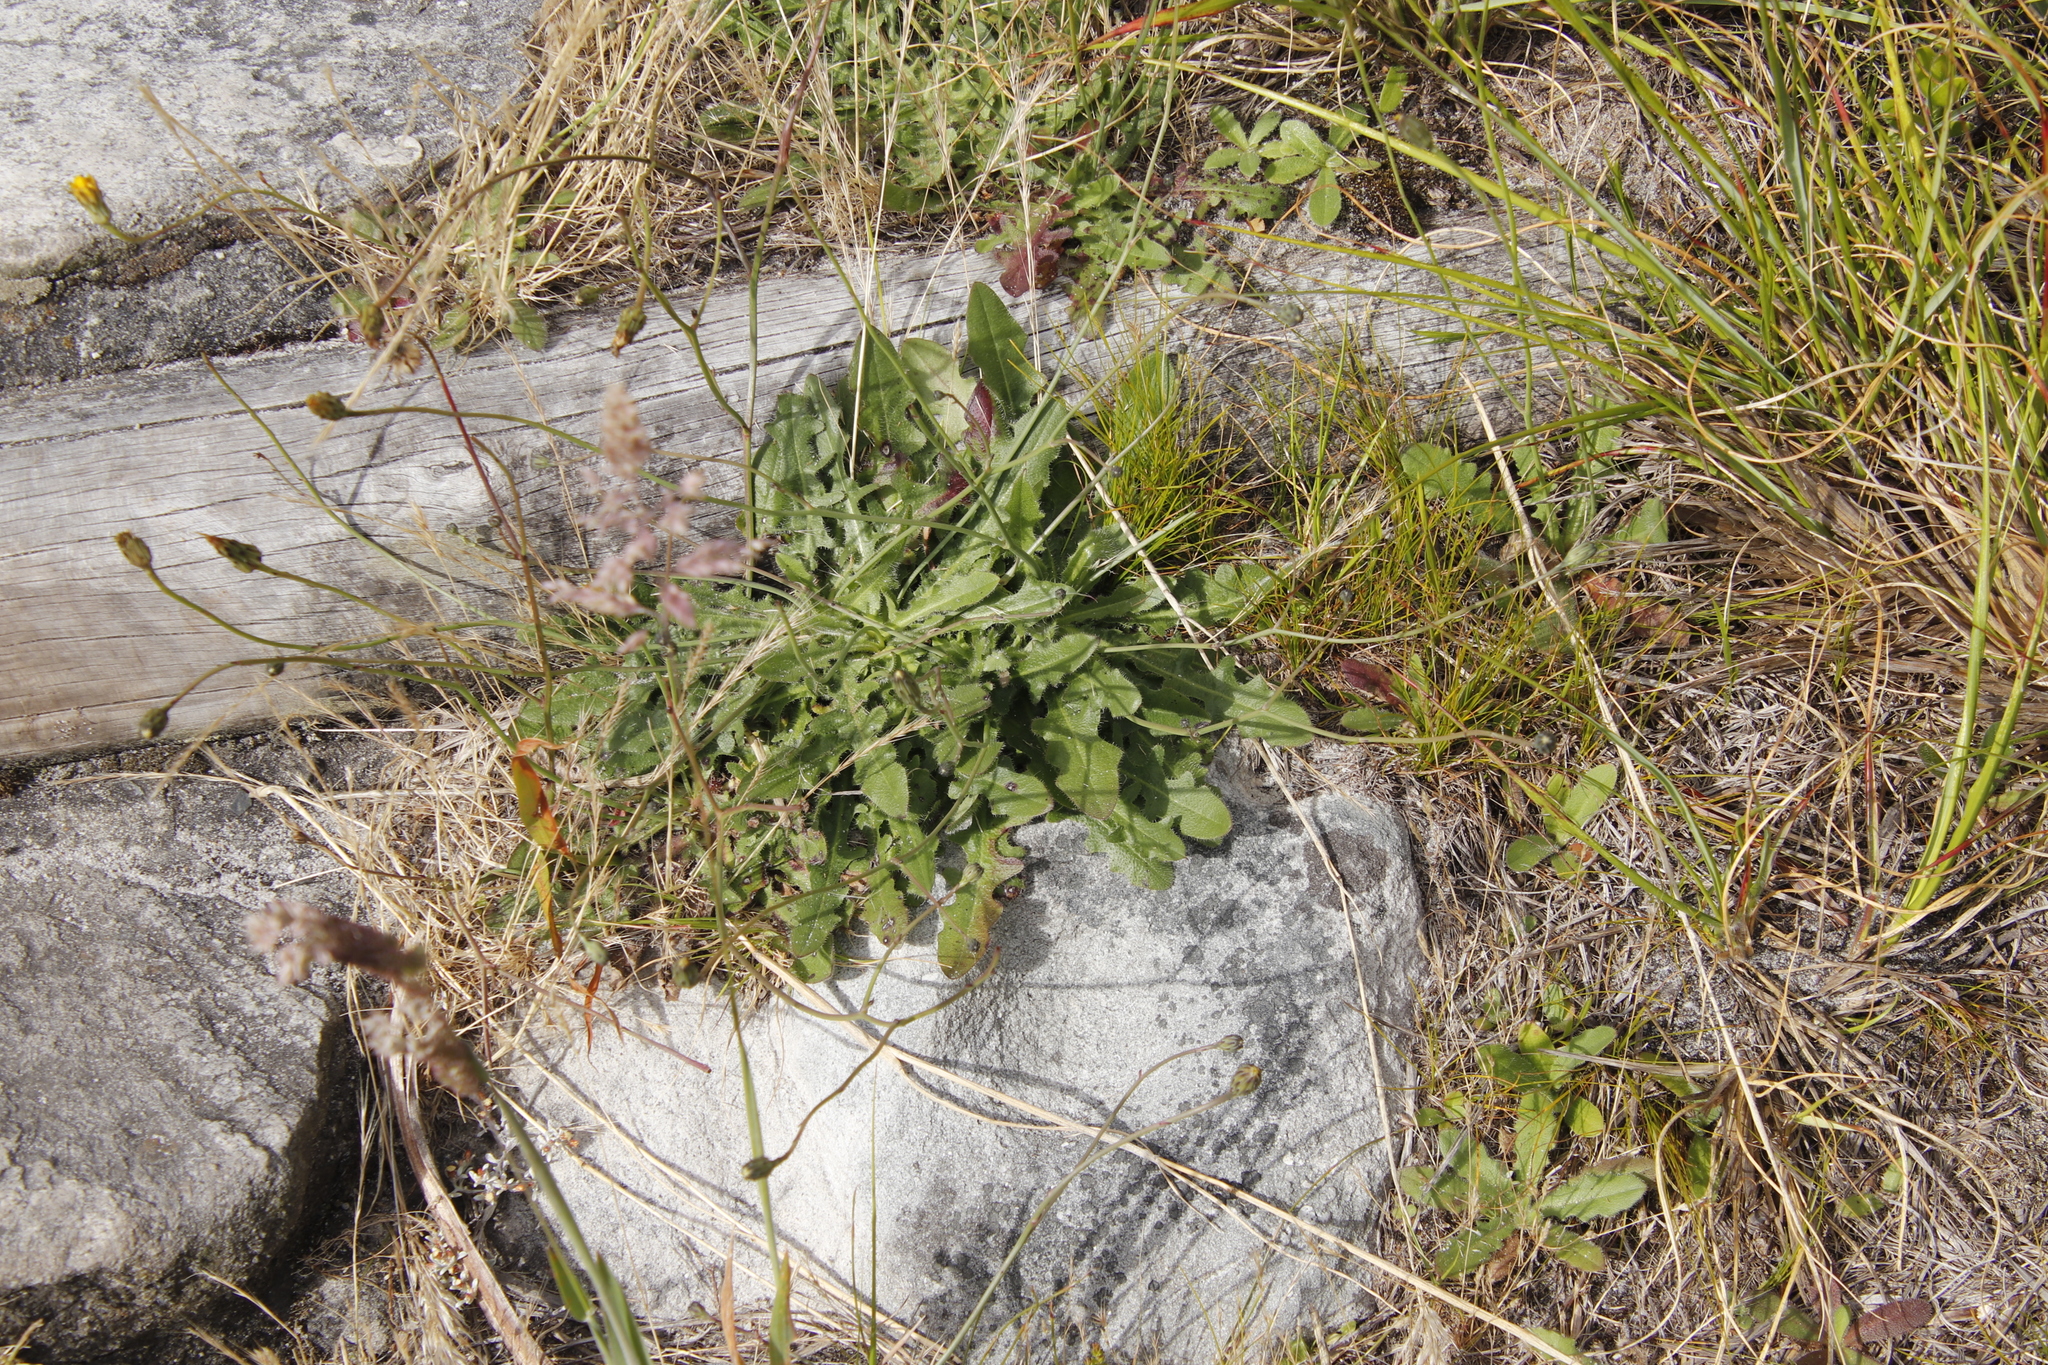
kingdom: Plantae
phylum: Tracheophyta
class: Magnoliopsida
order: Asterales
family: Asteraceae
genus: Hypochaeris
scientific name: Hypochaeris radicata
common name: Flatweed
